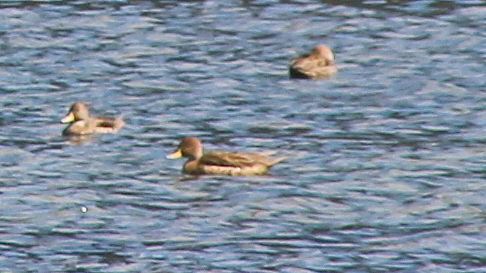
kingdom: Animalia
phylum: Chordata
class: Aves
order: Anseriformes
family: Anatidae
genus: Anas
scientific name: Anas georgica
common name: Yellow-billed pintail
